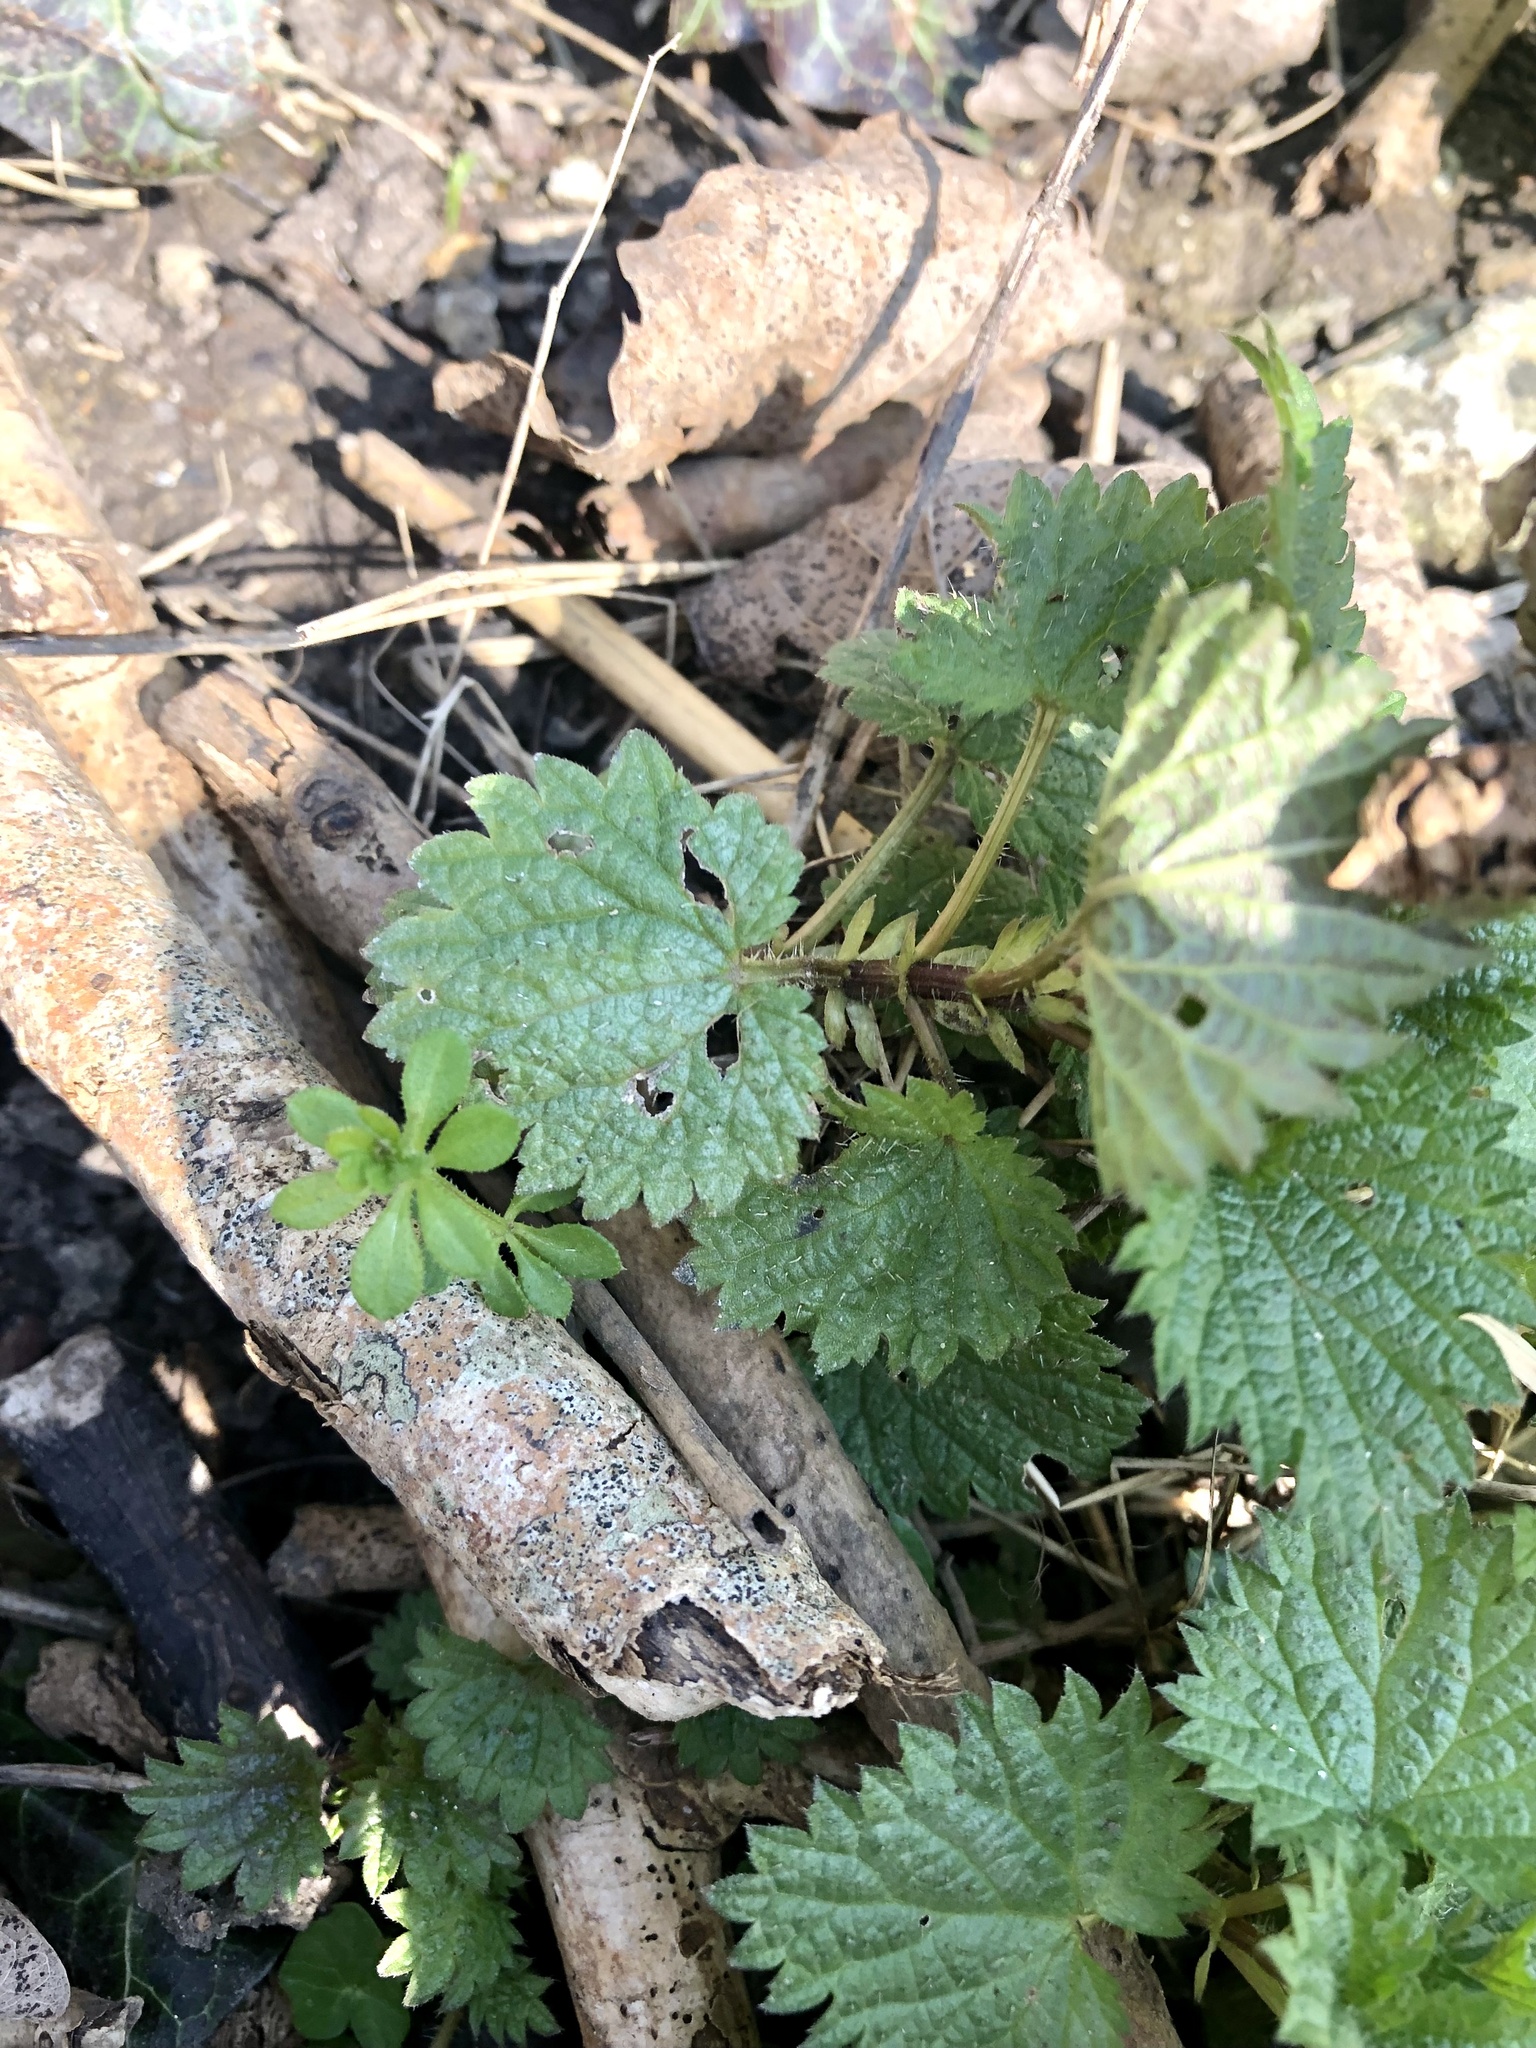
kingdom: Plantae
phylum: Tracheophyta
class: Magnoliopsida
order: Rosales
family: Urticaceae
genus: Urtica
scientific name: Urtica dioica
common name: Common nettle
